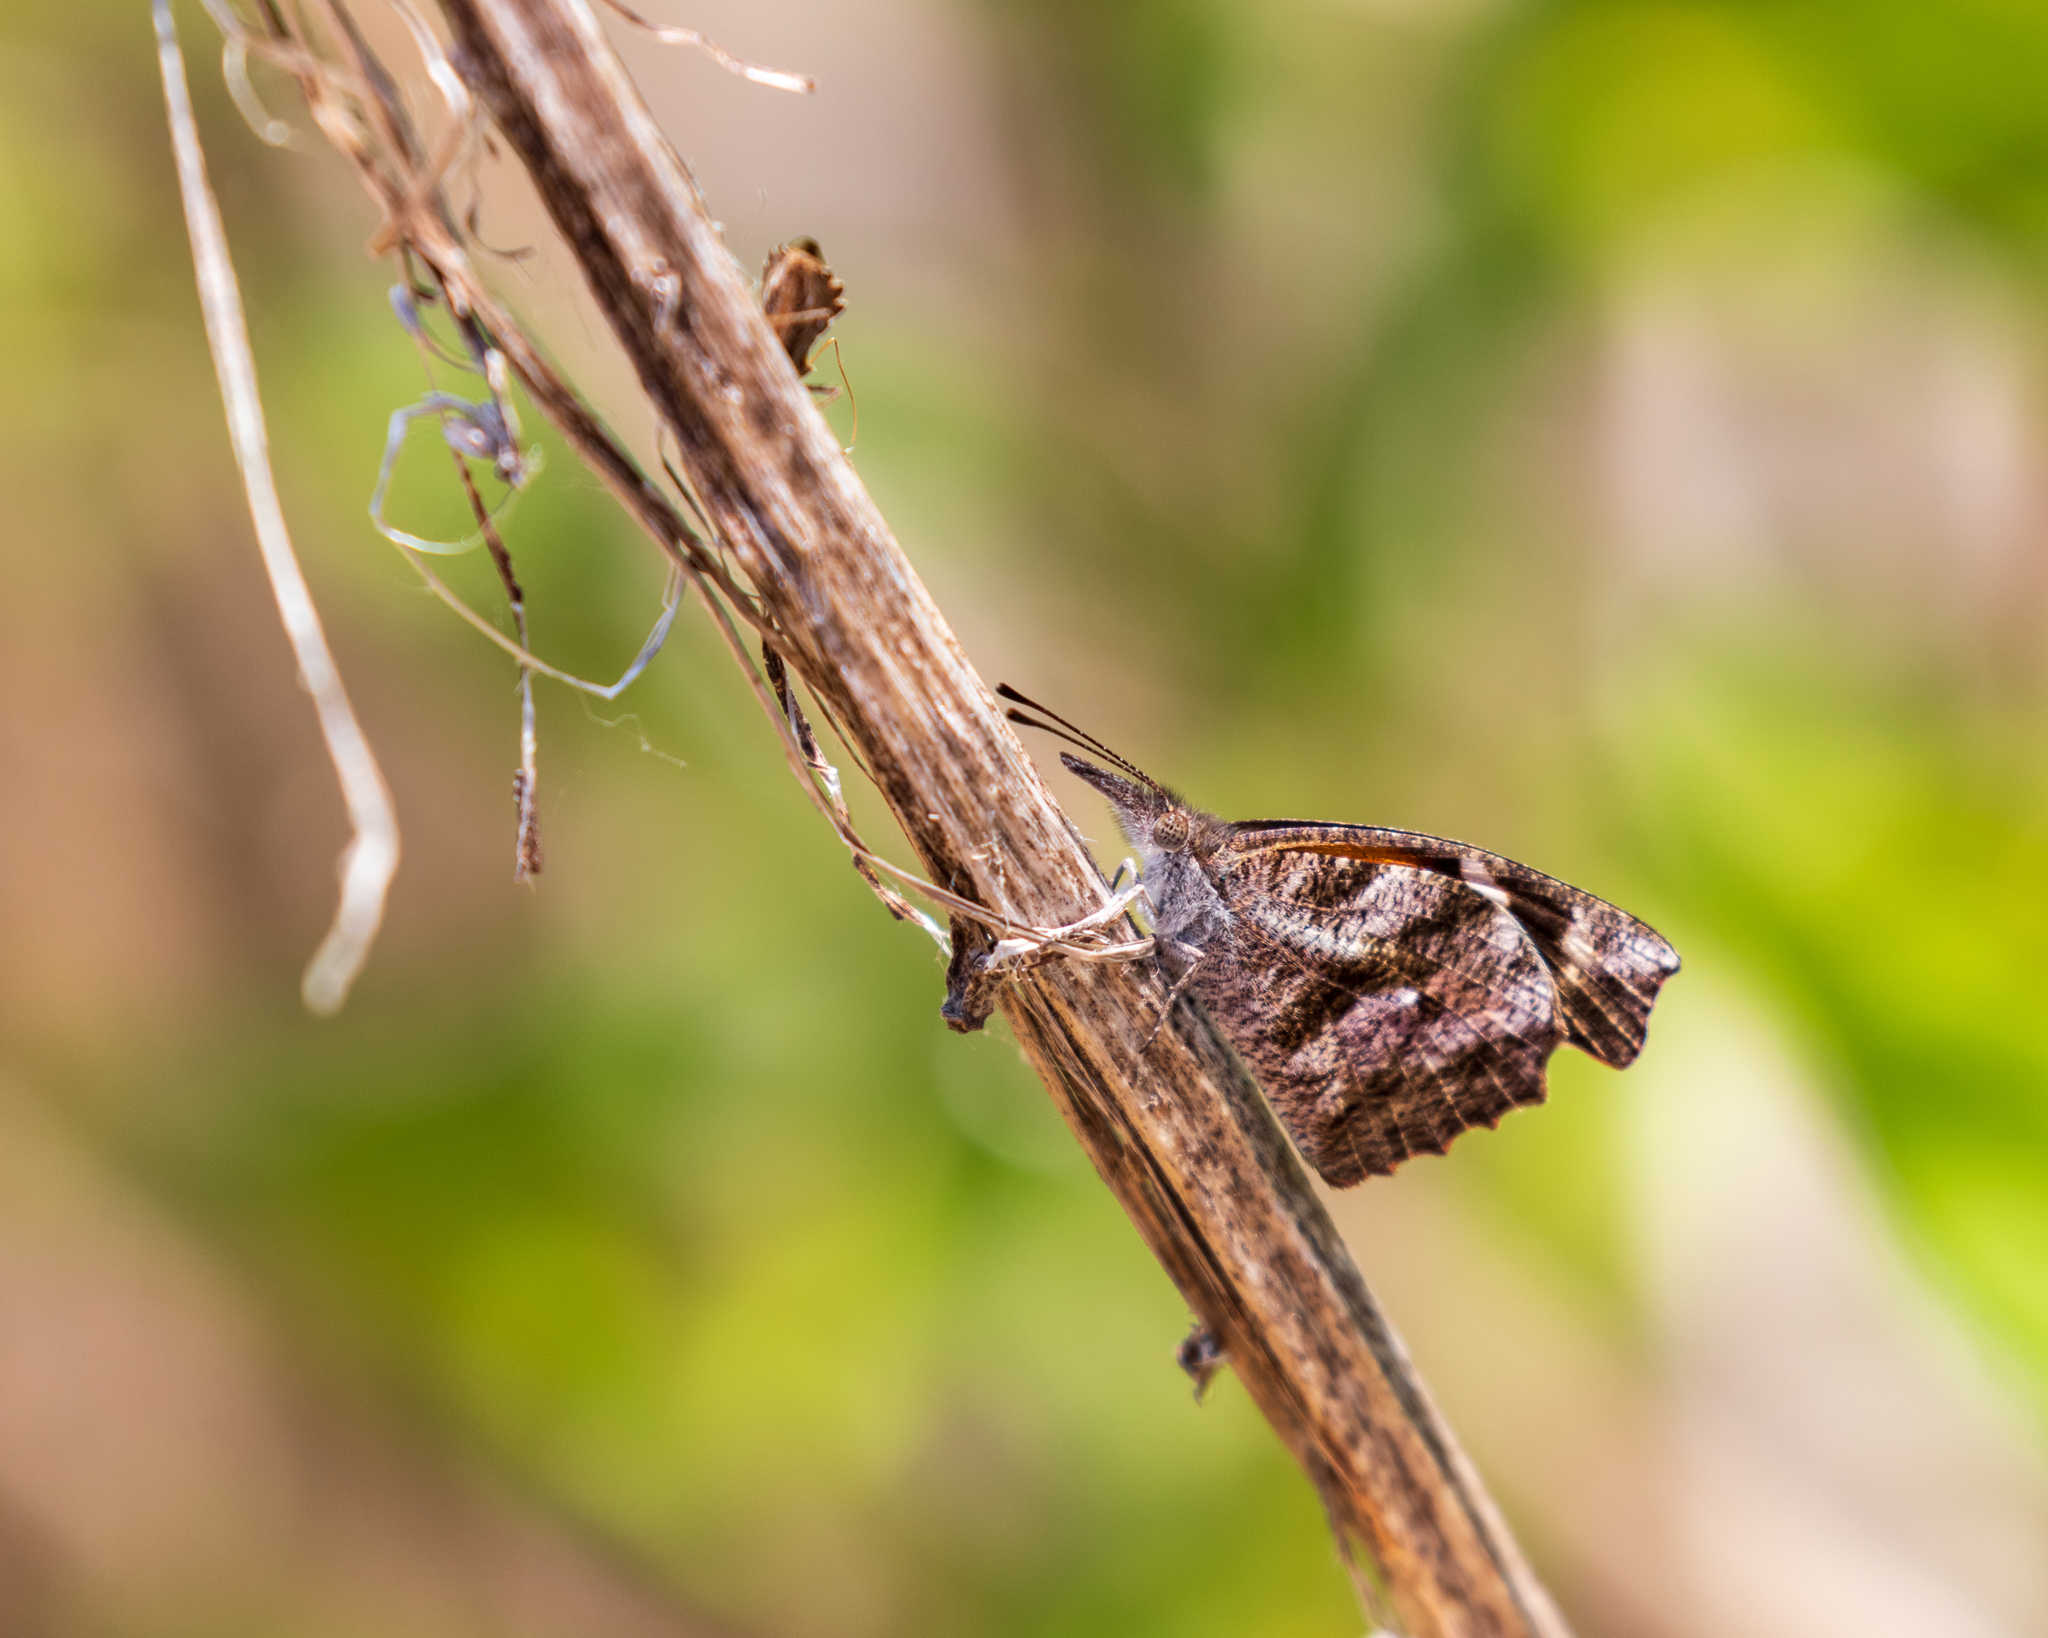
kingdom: Animalia
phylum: Arthropoda
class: Insecta
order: Lepidoptera
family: Nymphalidae
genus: Libytheana
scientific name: Libytheana carinenta
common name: American snout
